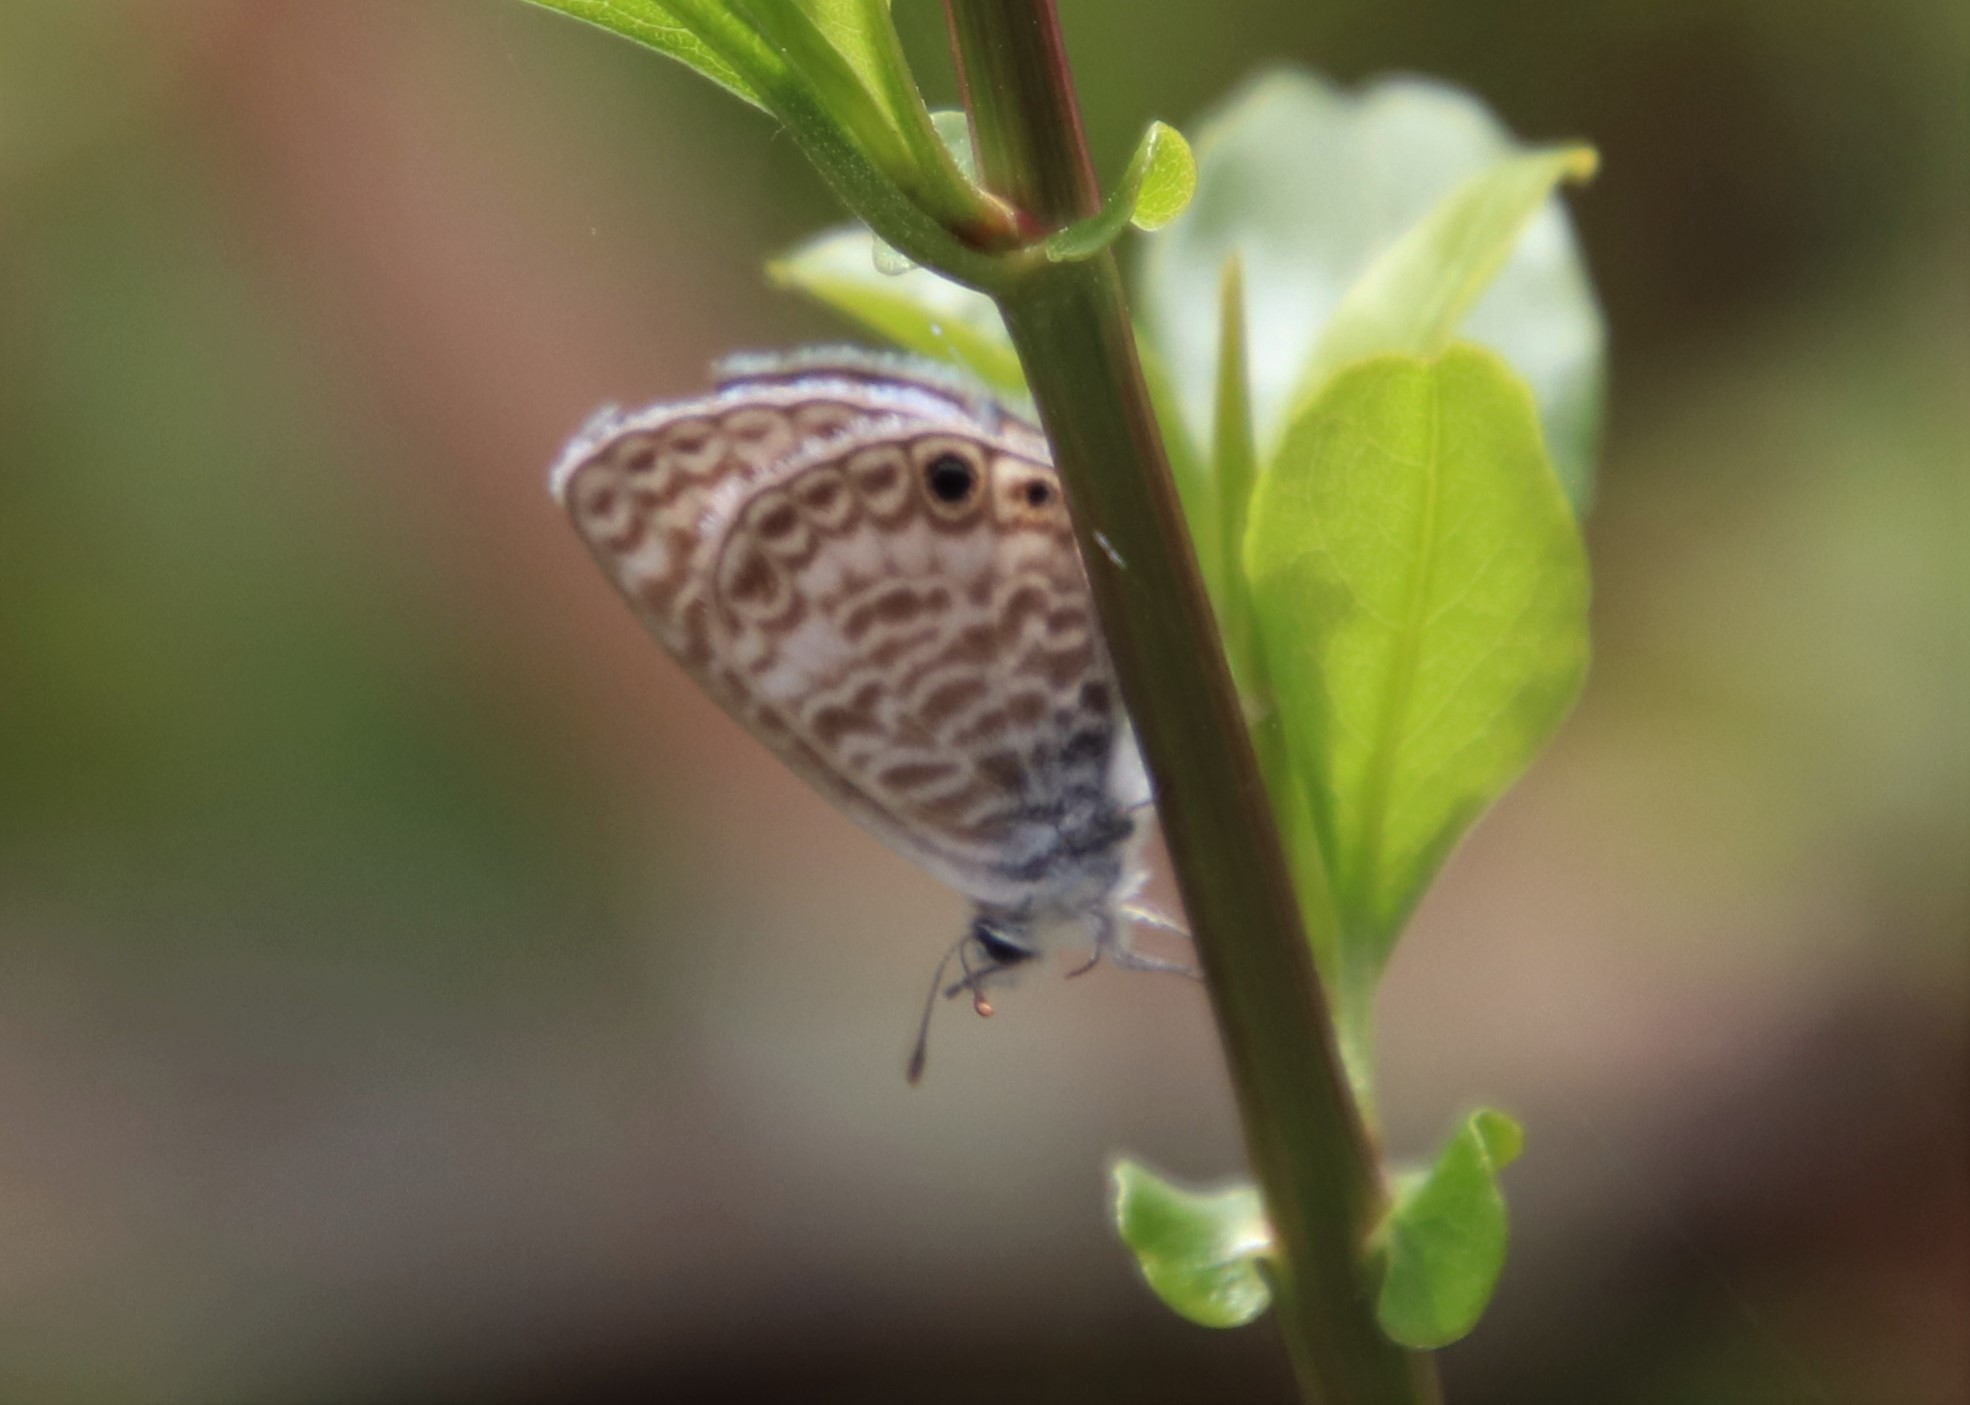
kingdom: Animalia
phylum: Arthropoda
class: Insecta
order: Lepidoptera
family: Lycaenidae
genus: Leptotes
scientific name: Leptotes marina
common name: Marine blue
